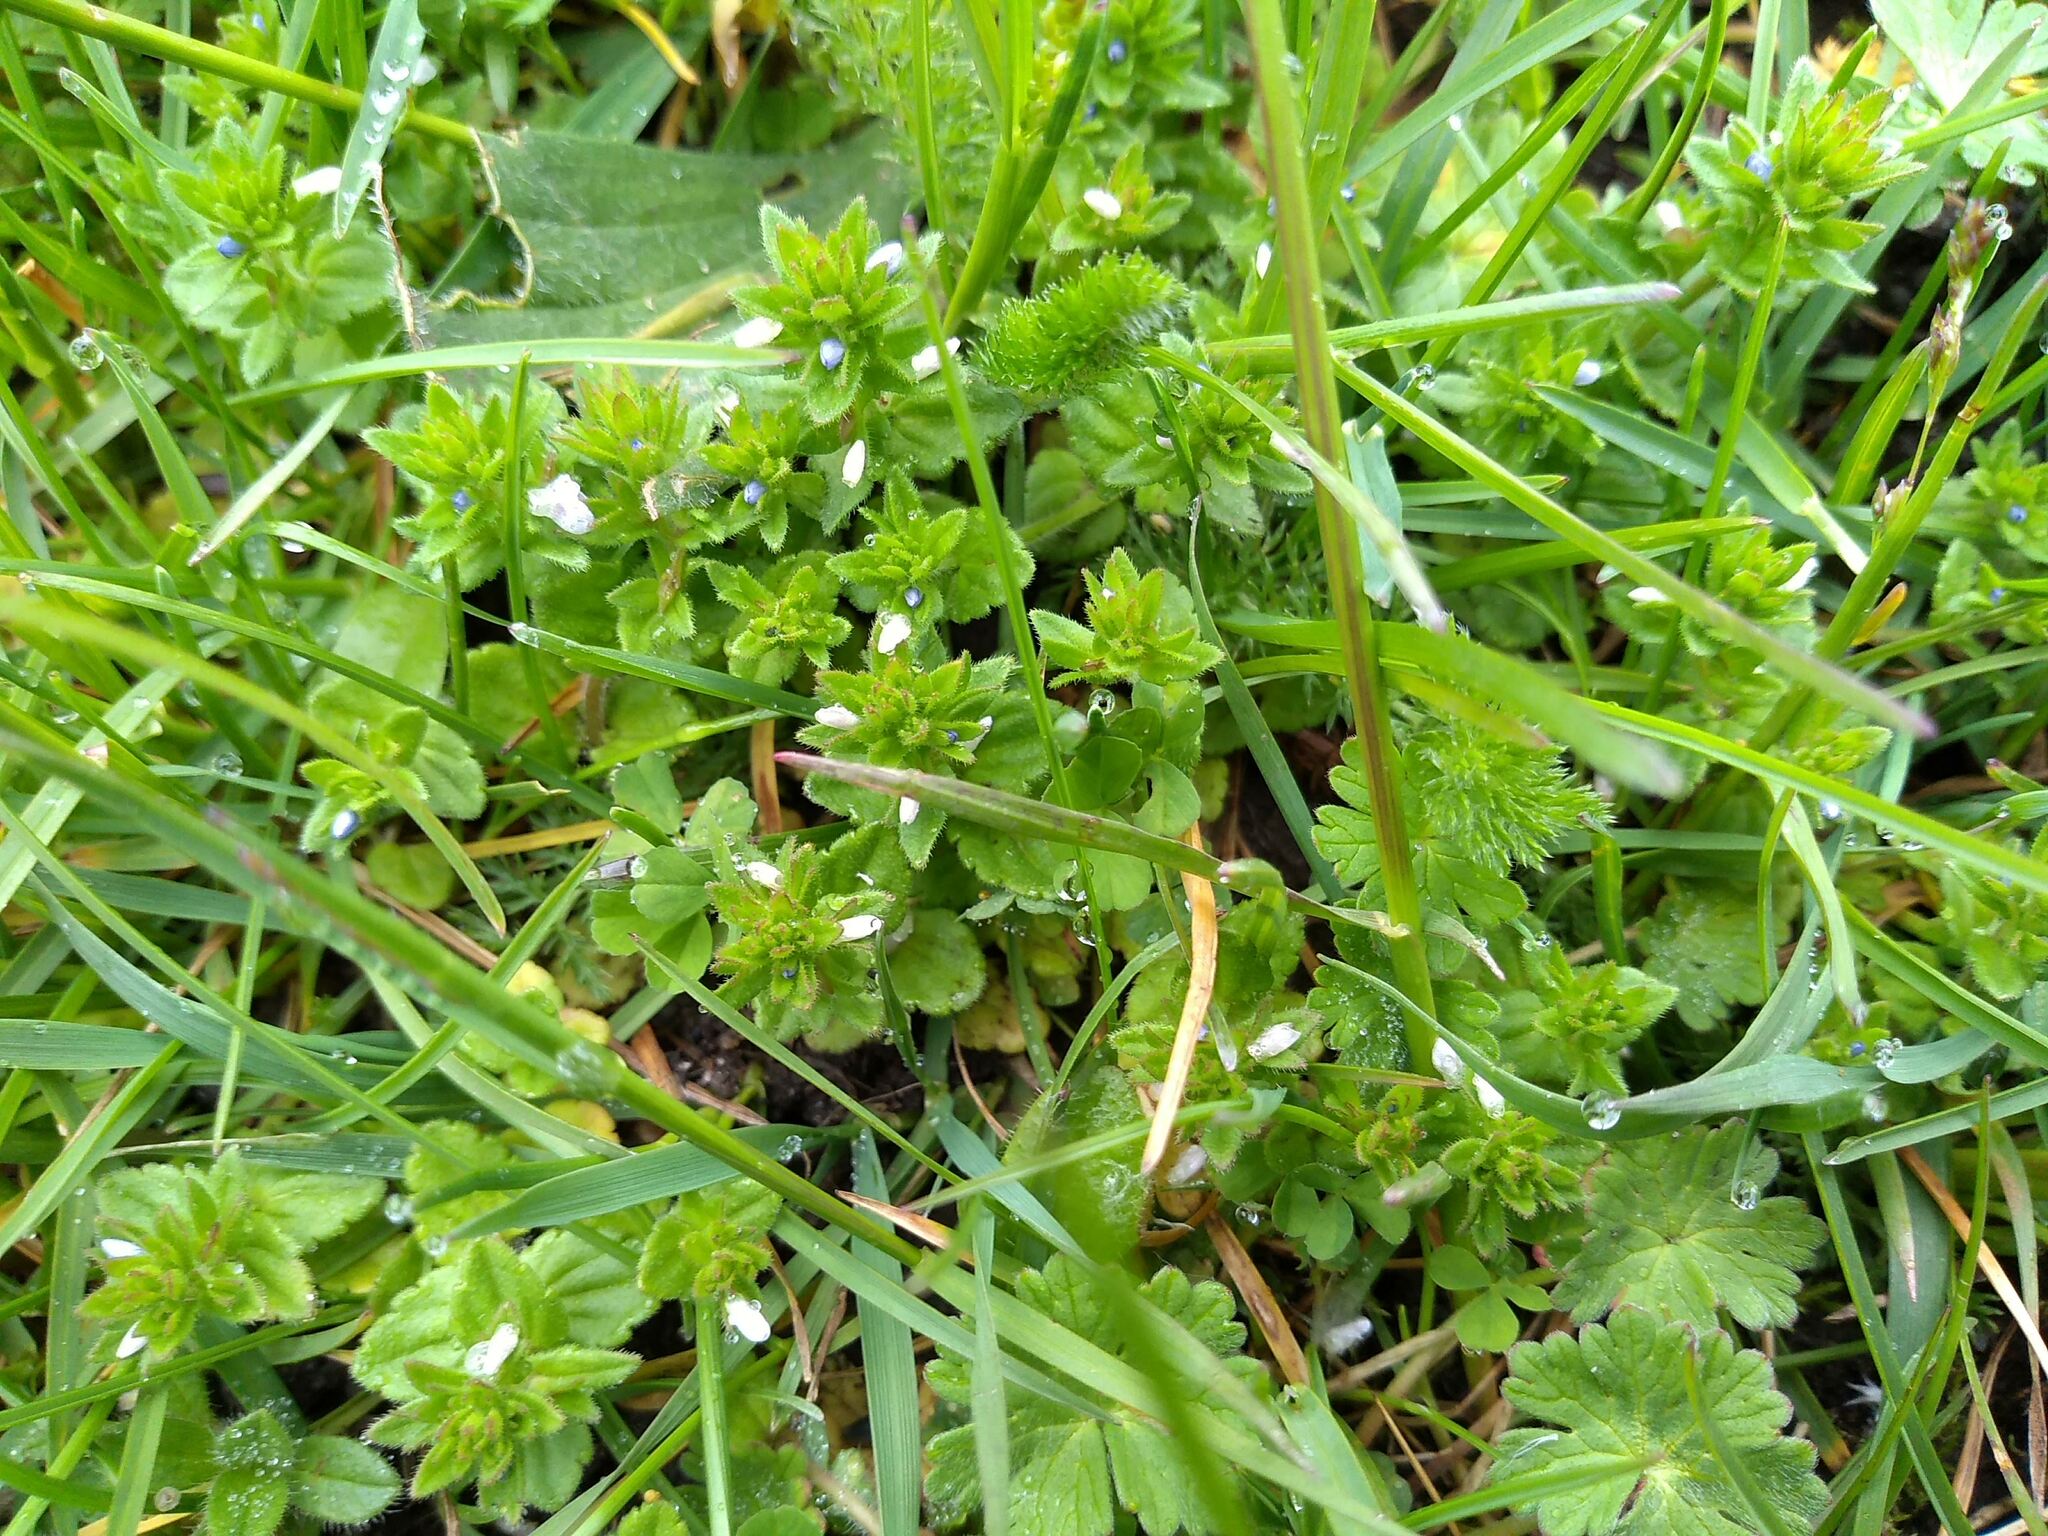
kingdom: Plantae
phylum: Tracheophyta
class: Magnoliopsida
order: Lamiales
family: Plantaginaceae
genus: Veronica
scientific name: Veronica arvensis
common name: Corn speedwell
